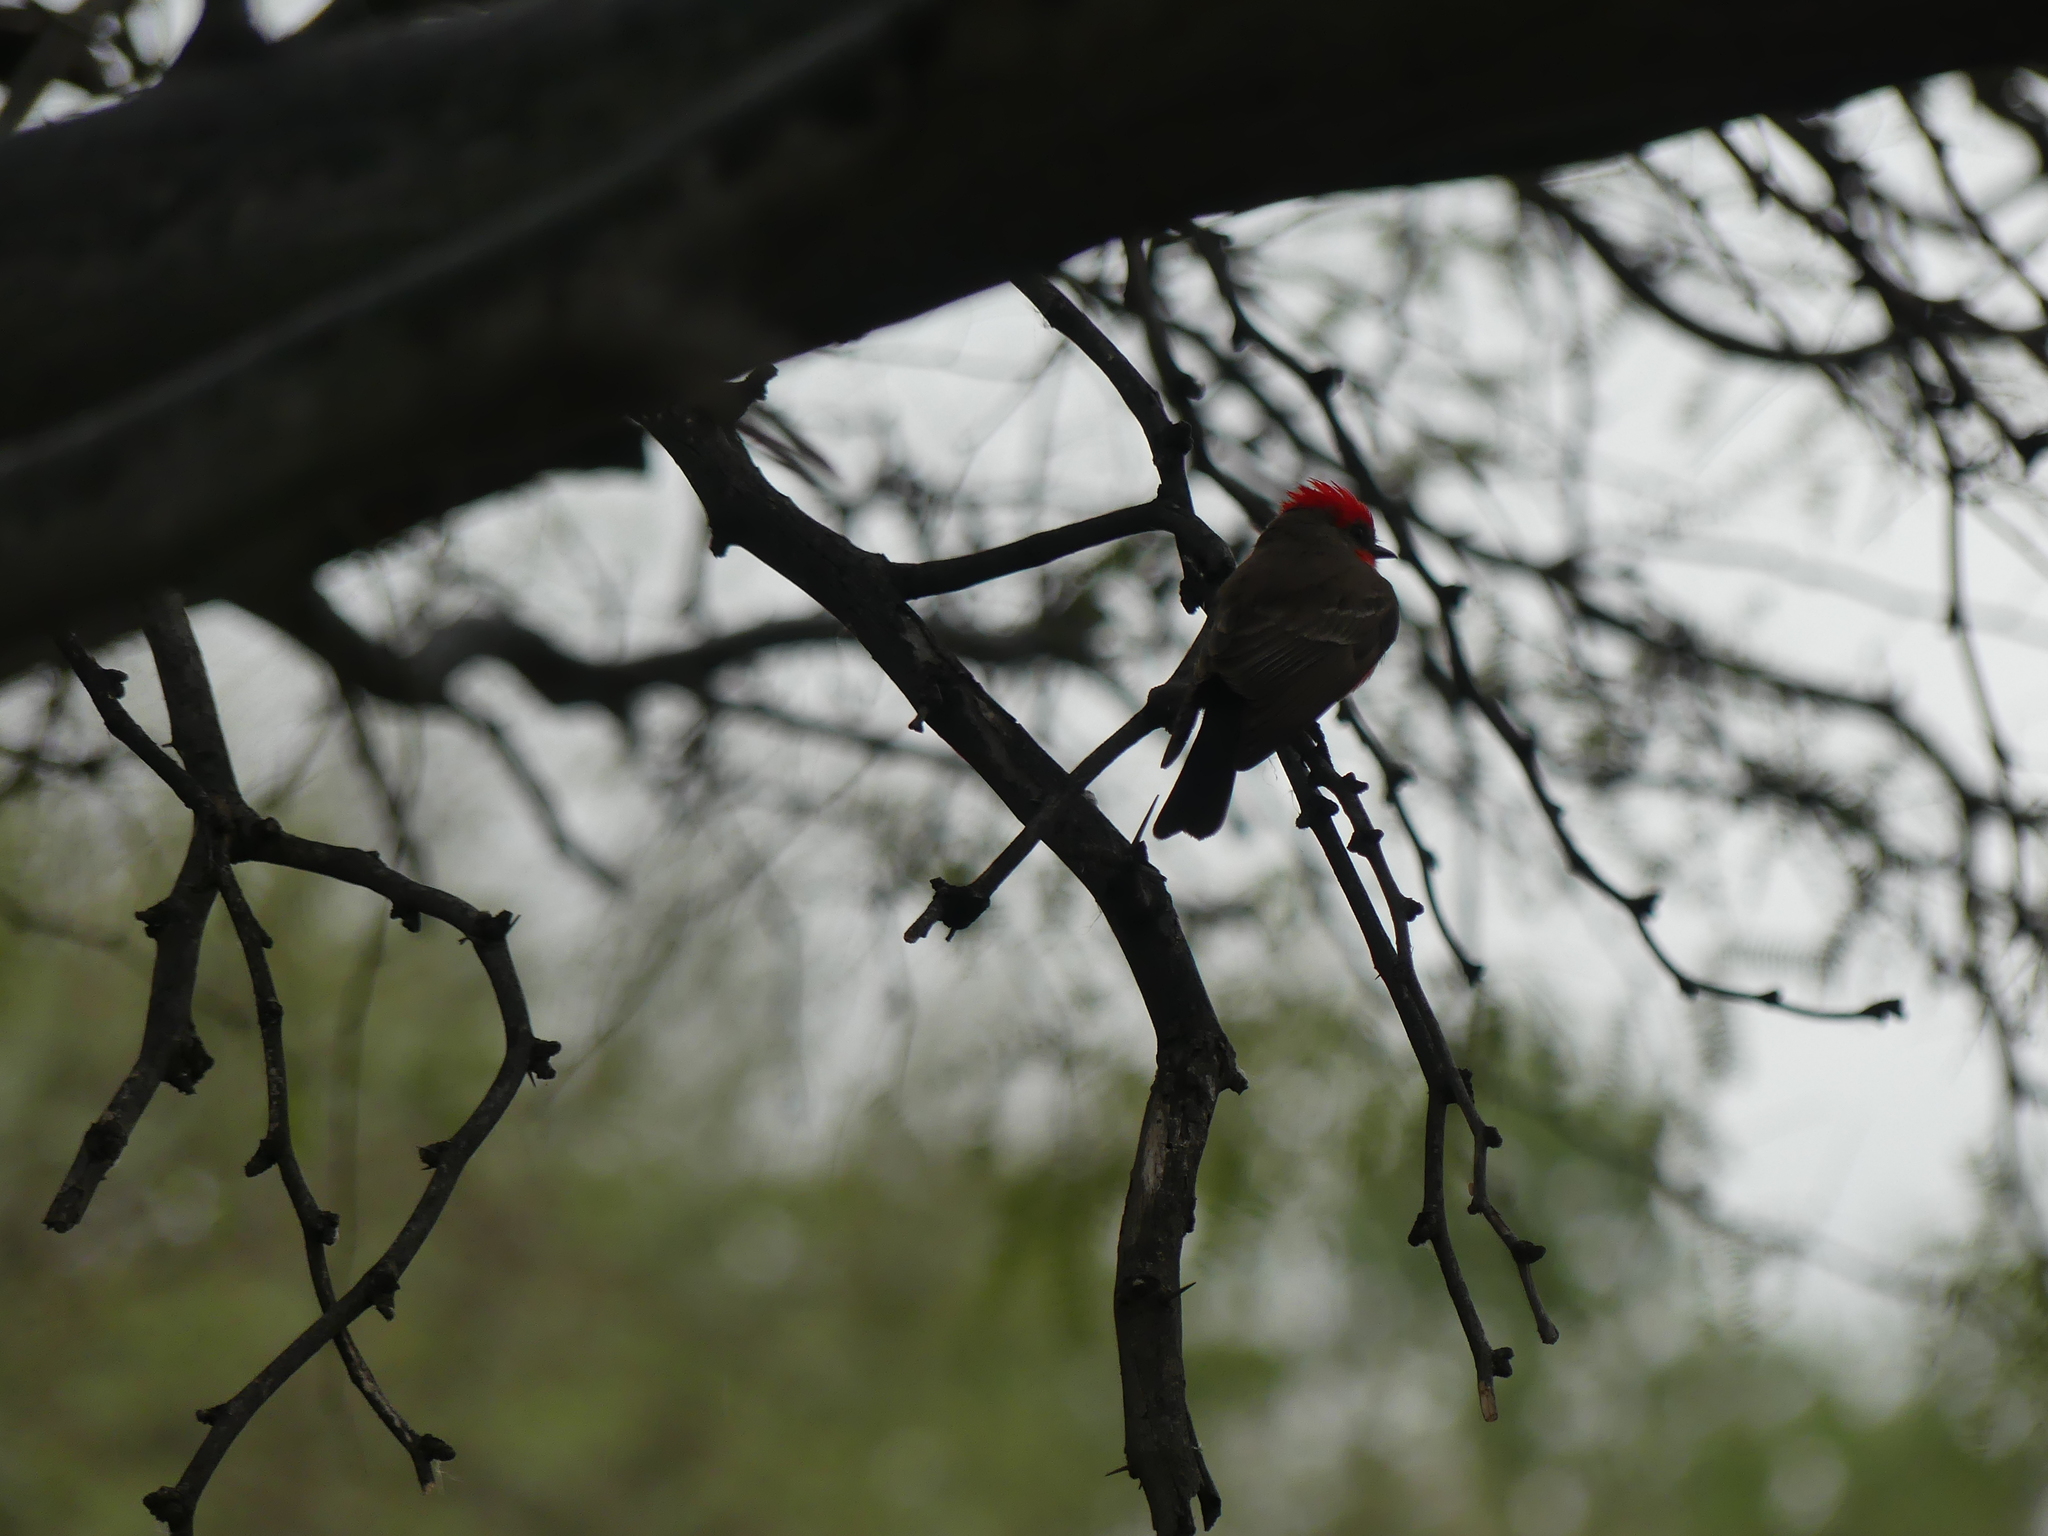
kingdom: Animalia
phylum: Chordata
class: Aves
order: Passeriformes
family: Tyrannidae
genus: Pyrocephalus
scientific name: Pyrocephalus rubinus
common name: Vermilion flycatcher
